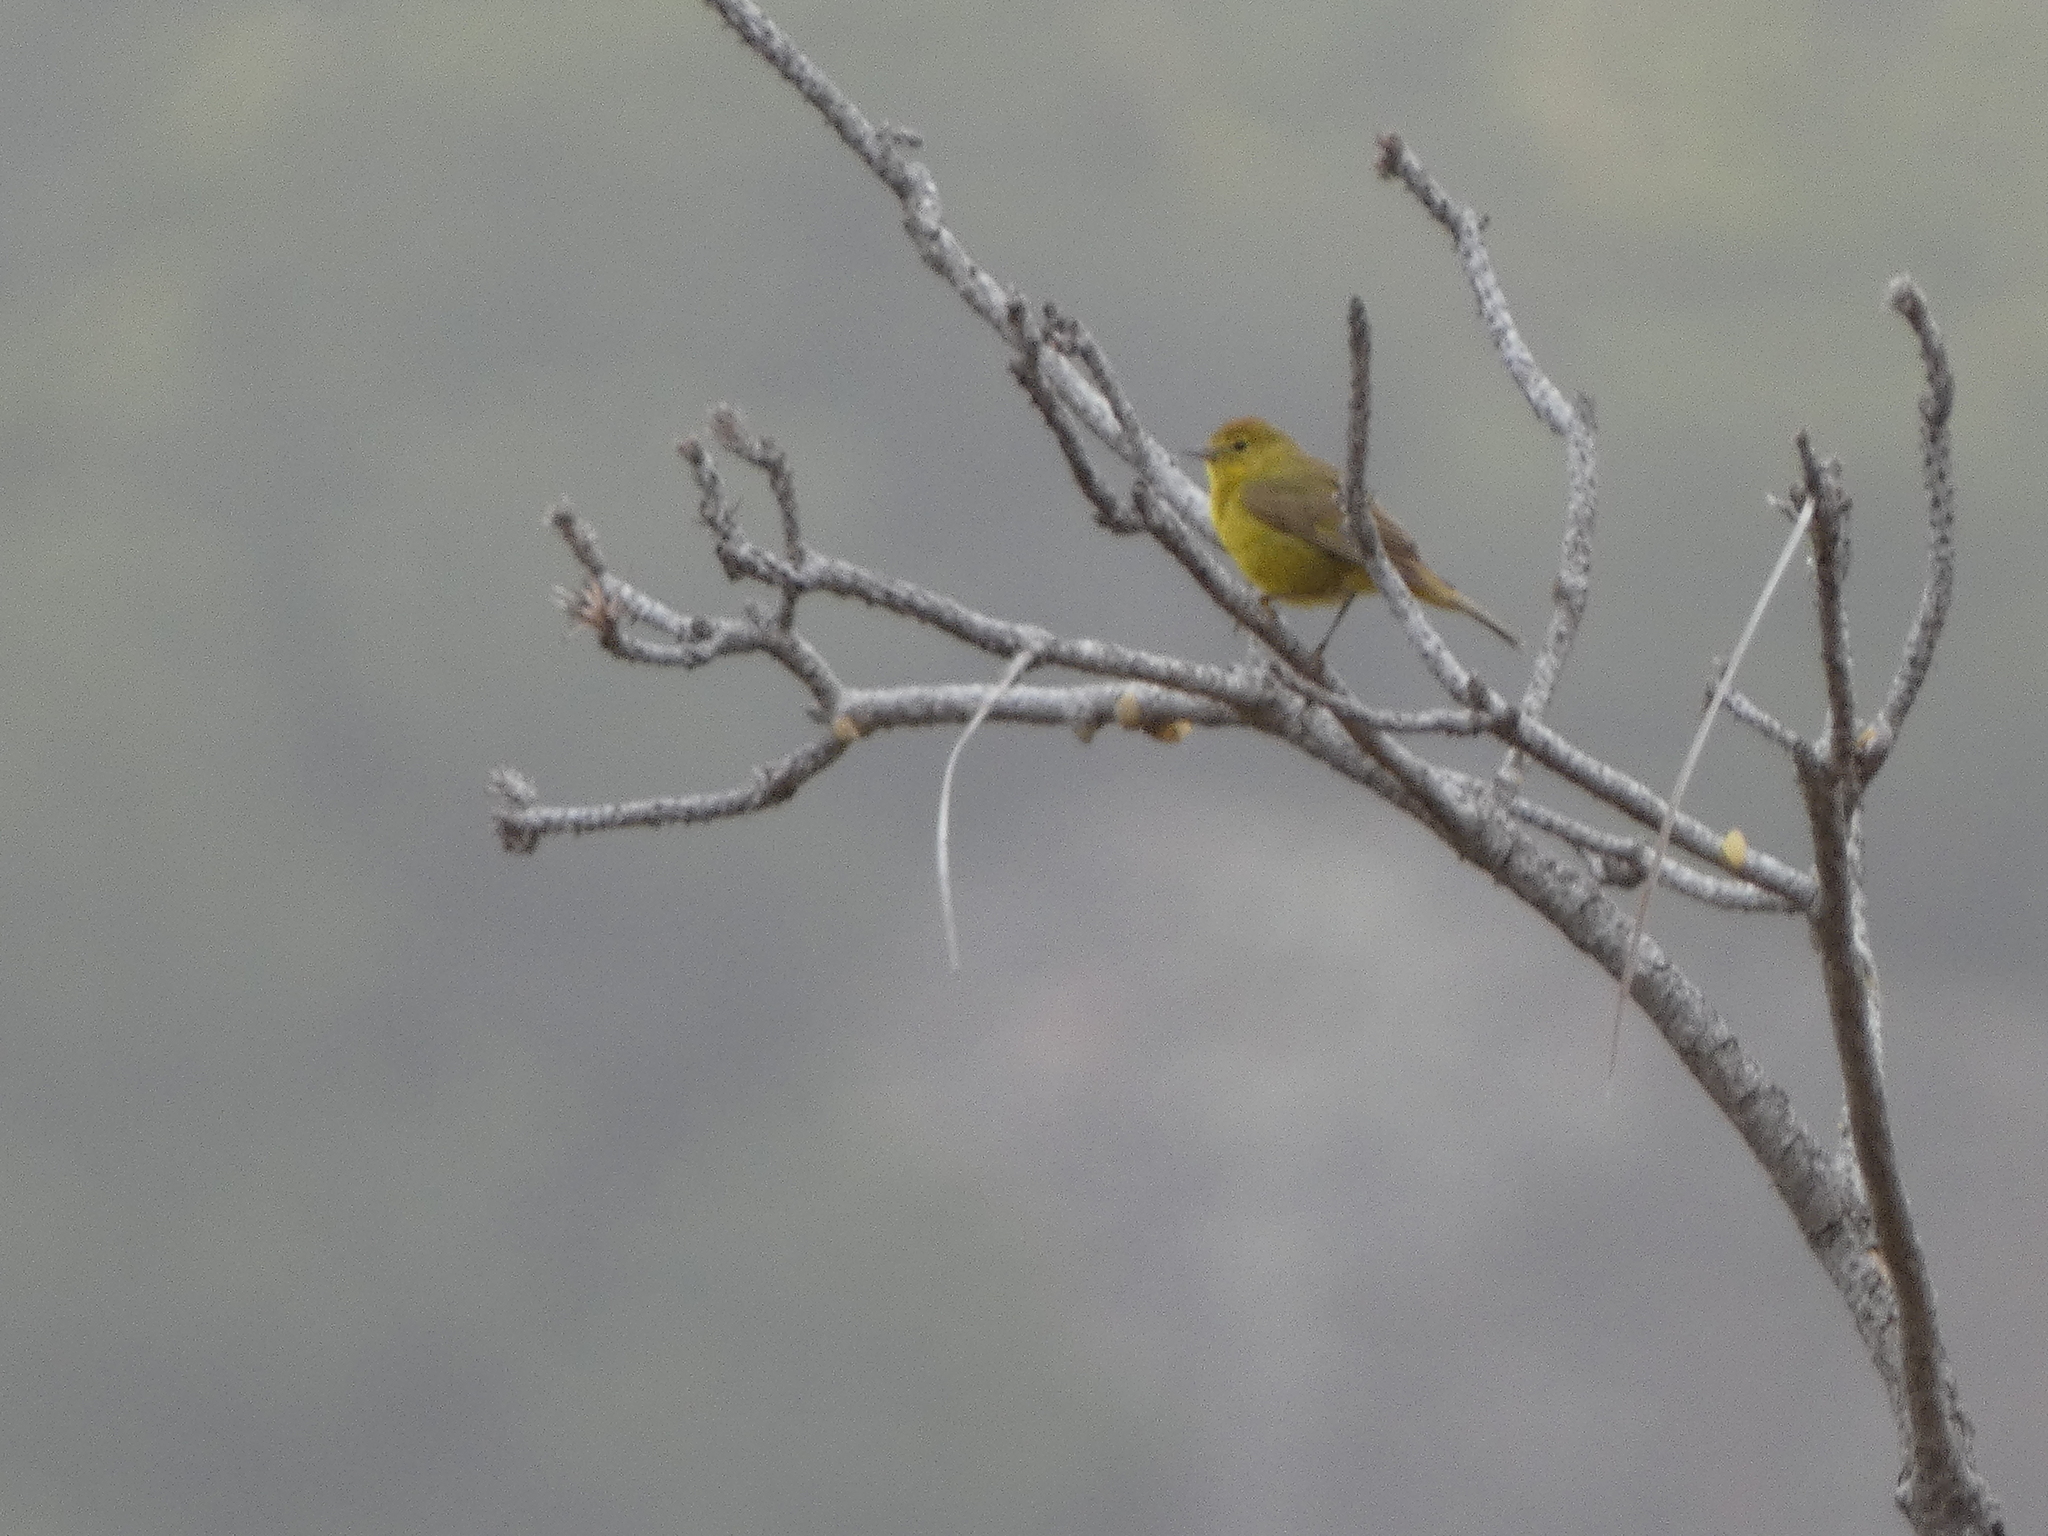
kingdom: Animalia
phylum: Chordata
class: Aves
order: Passeriformes
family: Parulidae
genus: Leiothlypis
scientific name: Leiothlypis celata
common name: Orange-crowned warbler
